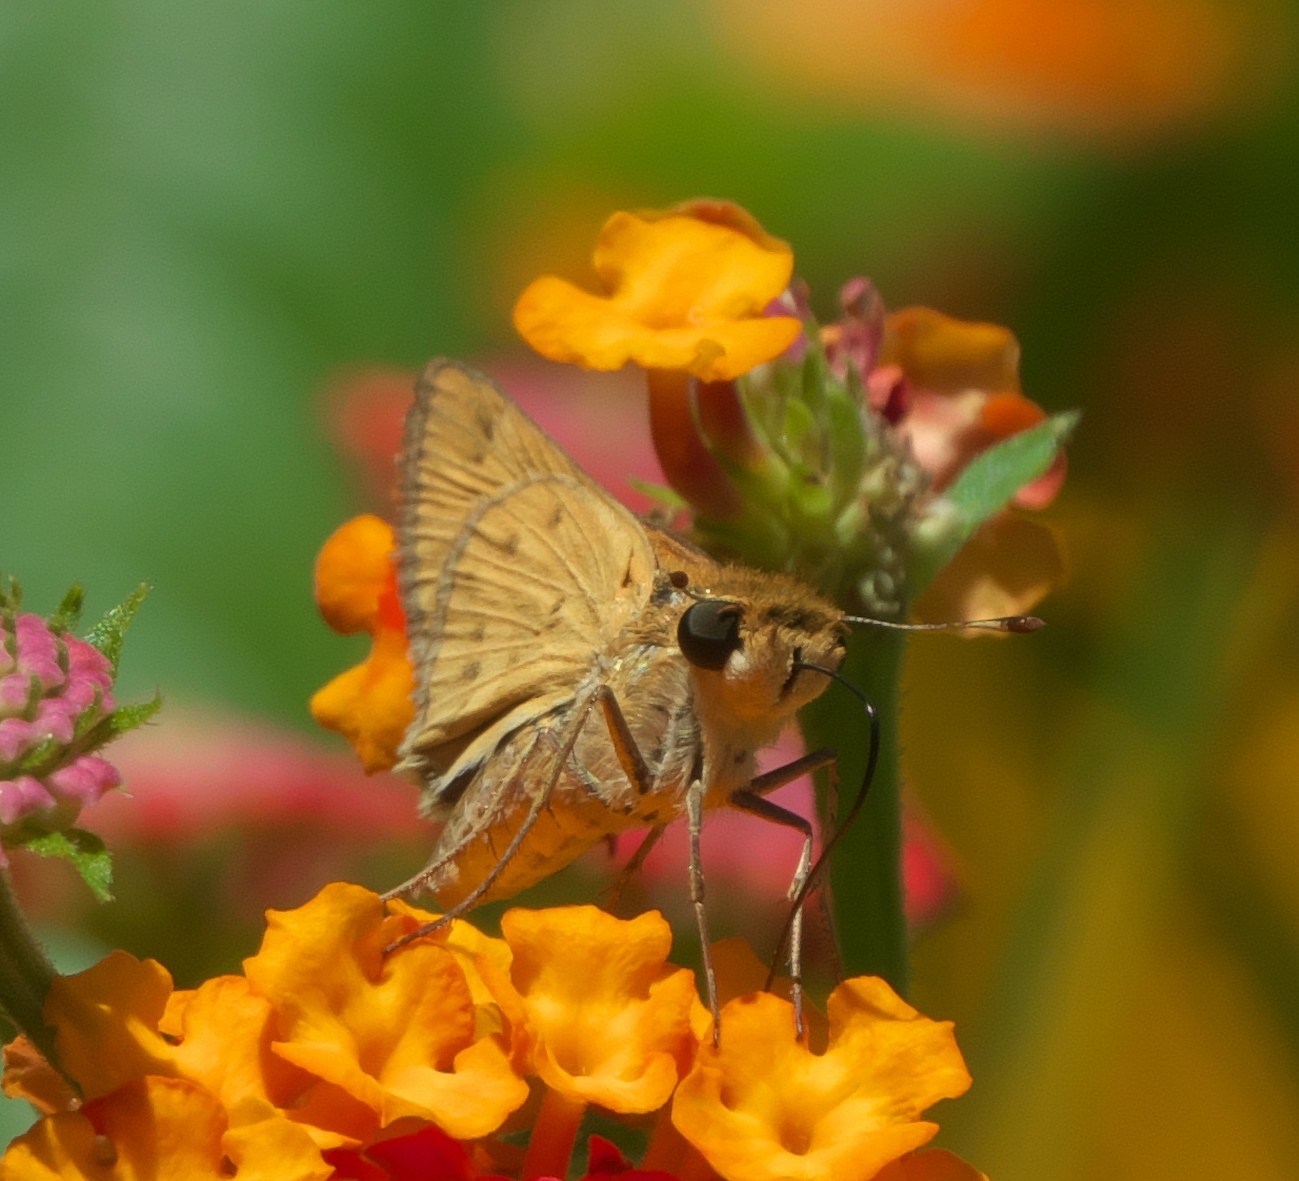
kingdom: Animalia
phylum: Arthropoda
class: Insecta
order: Lepidoptera
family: Hesperiidae
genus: Hylephila
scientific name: Hylephila phyleus
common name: Fiery skipper
